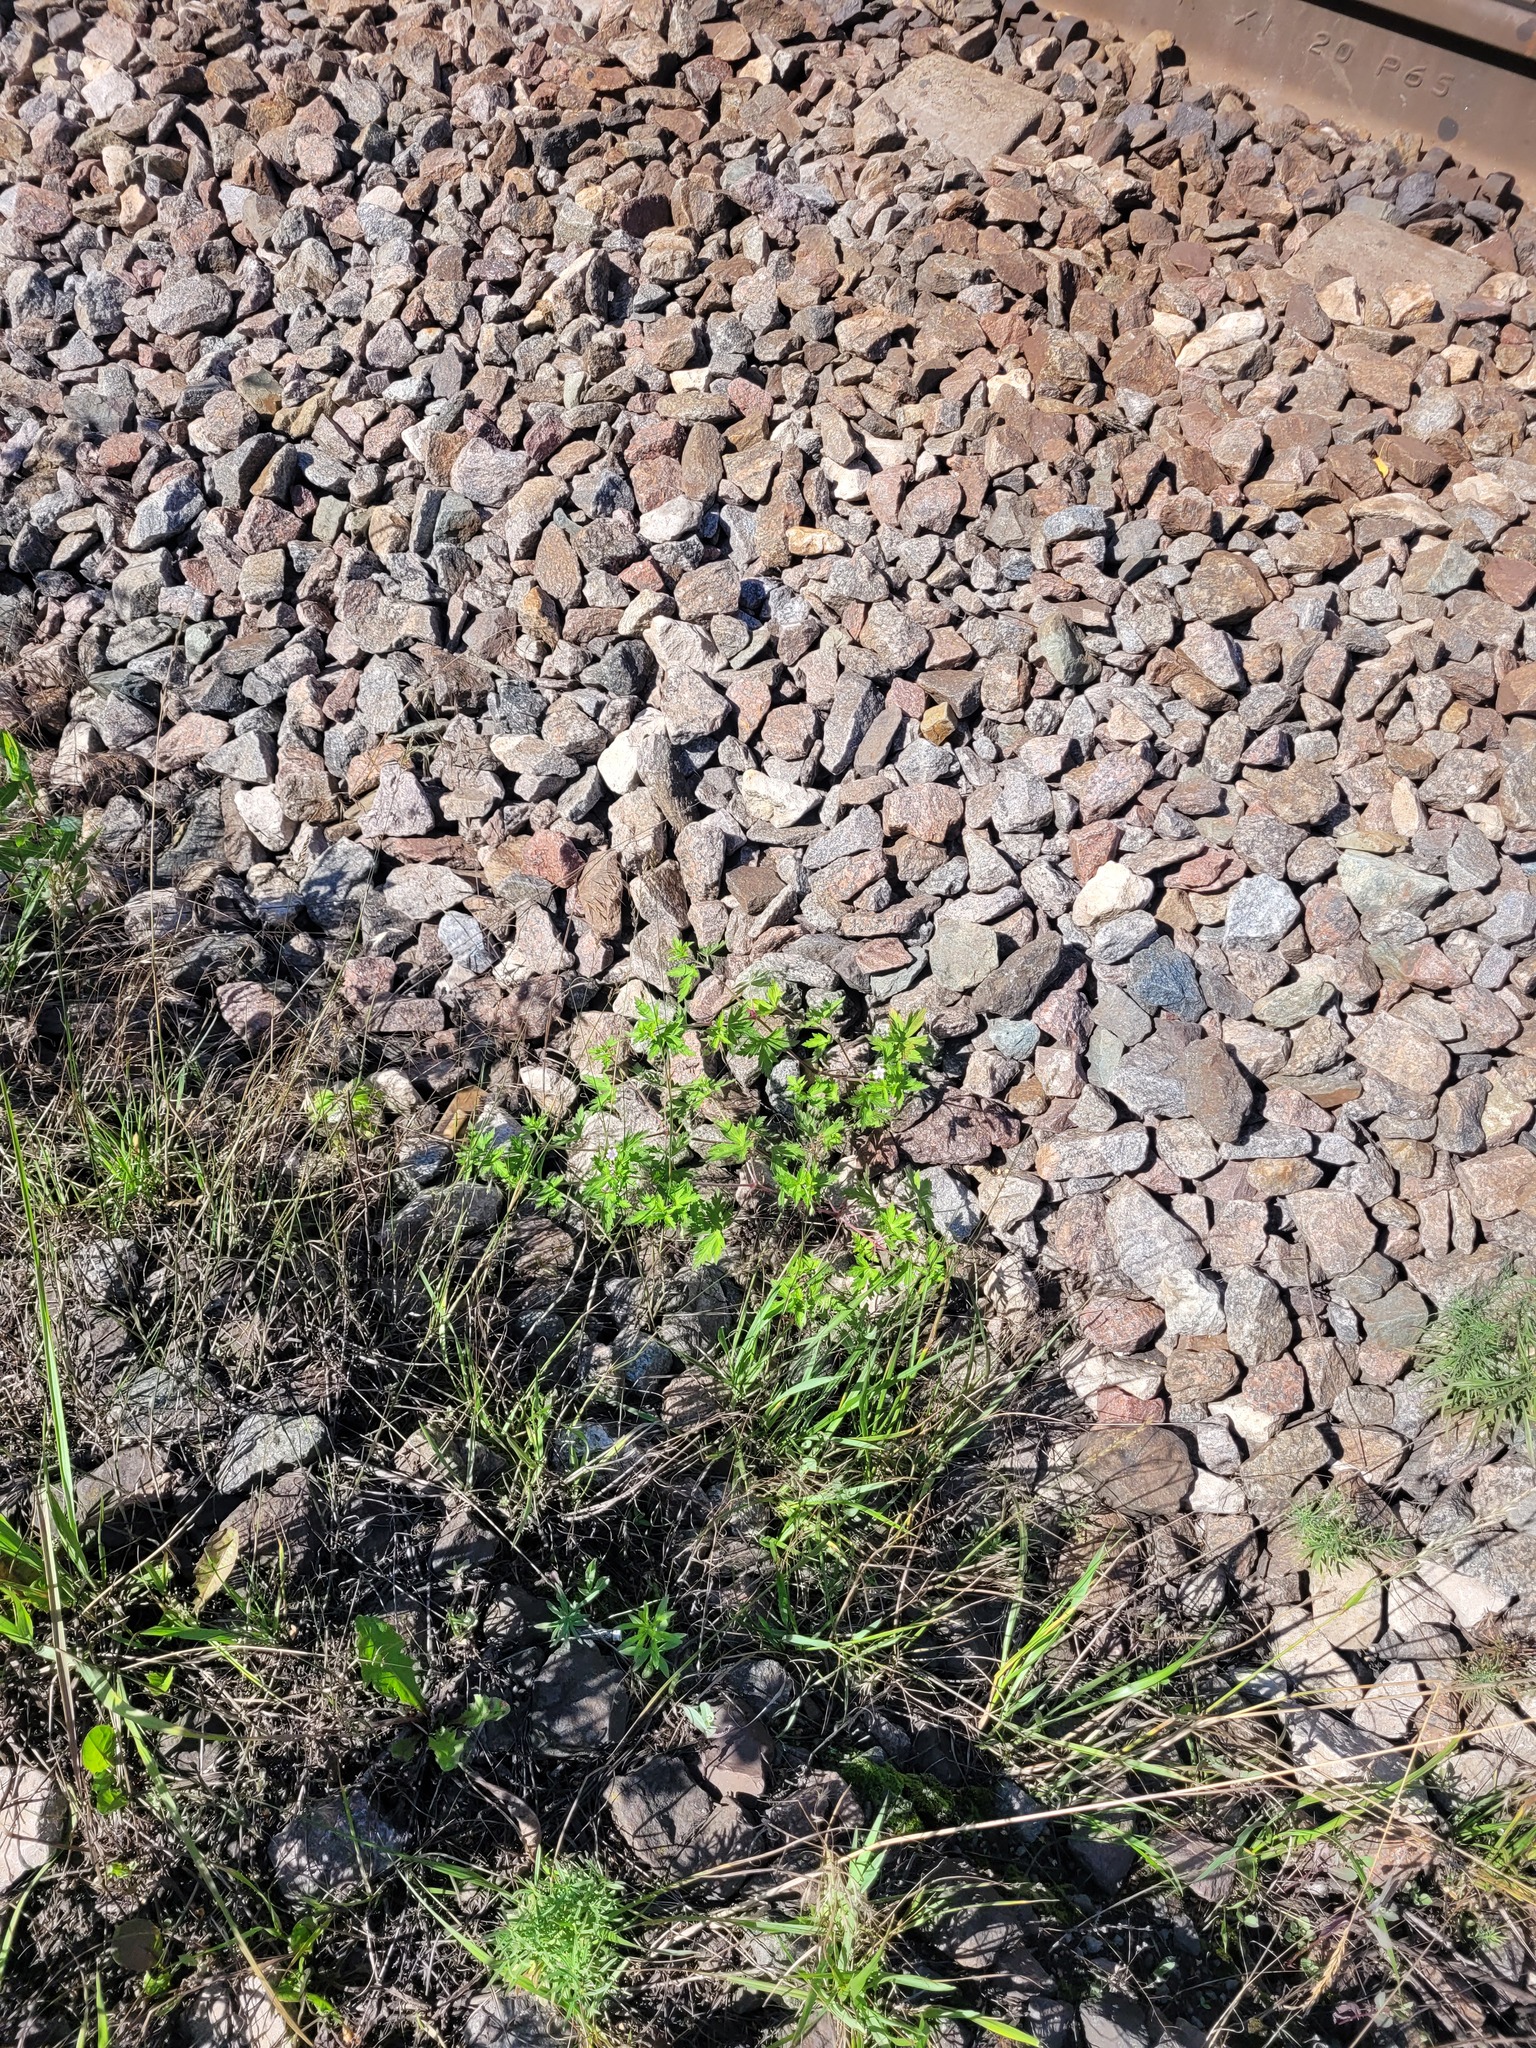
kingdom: Plantae
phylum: Tracheophyta
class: Magnoliopsida
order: Geraniales
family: Geraniaceae
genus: Geranium
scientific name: Geranium sibiricum
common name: Siberian crane's-bill
